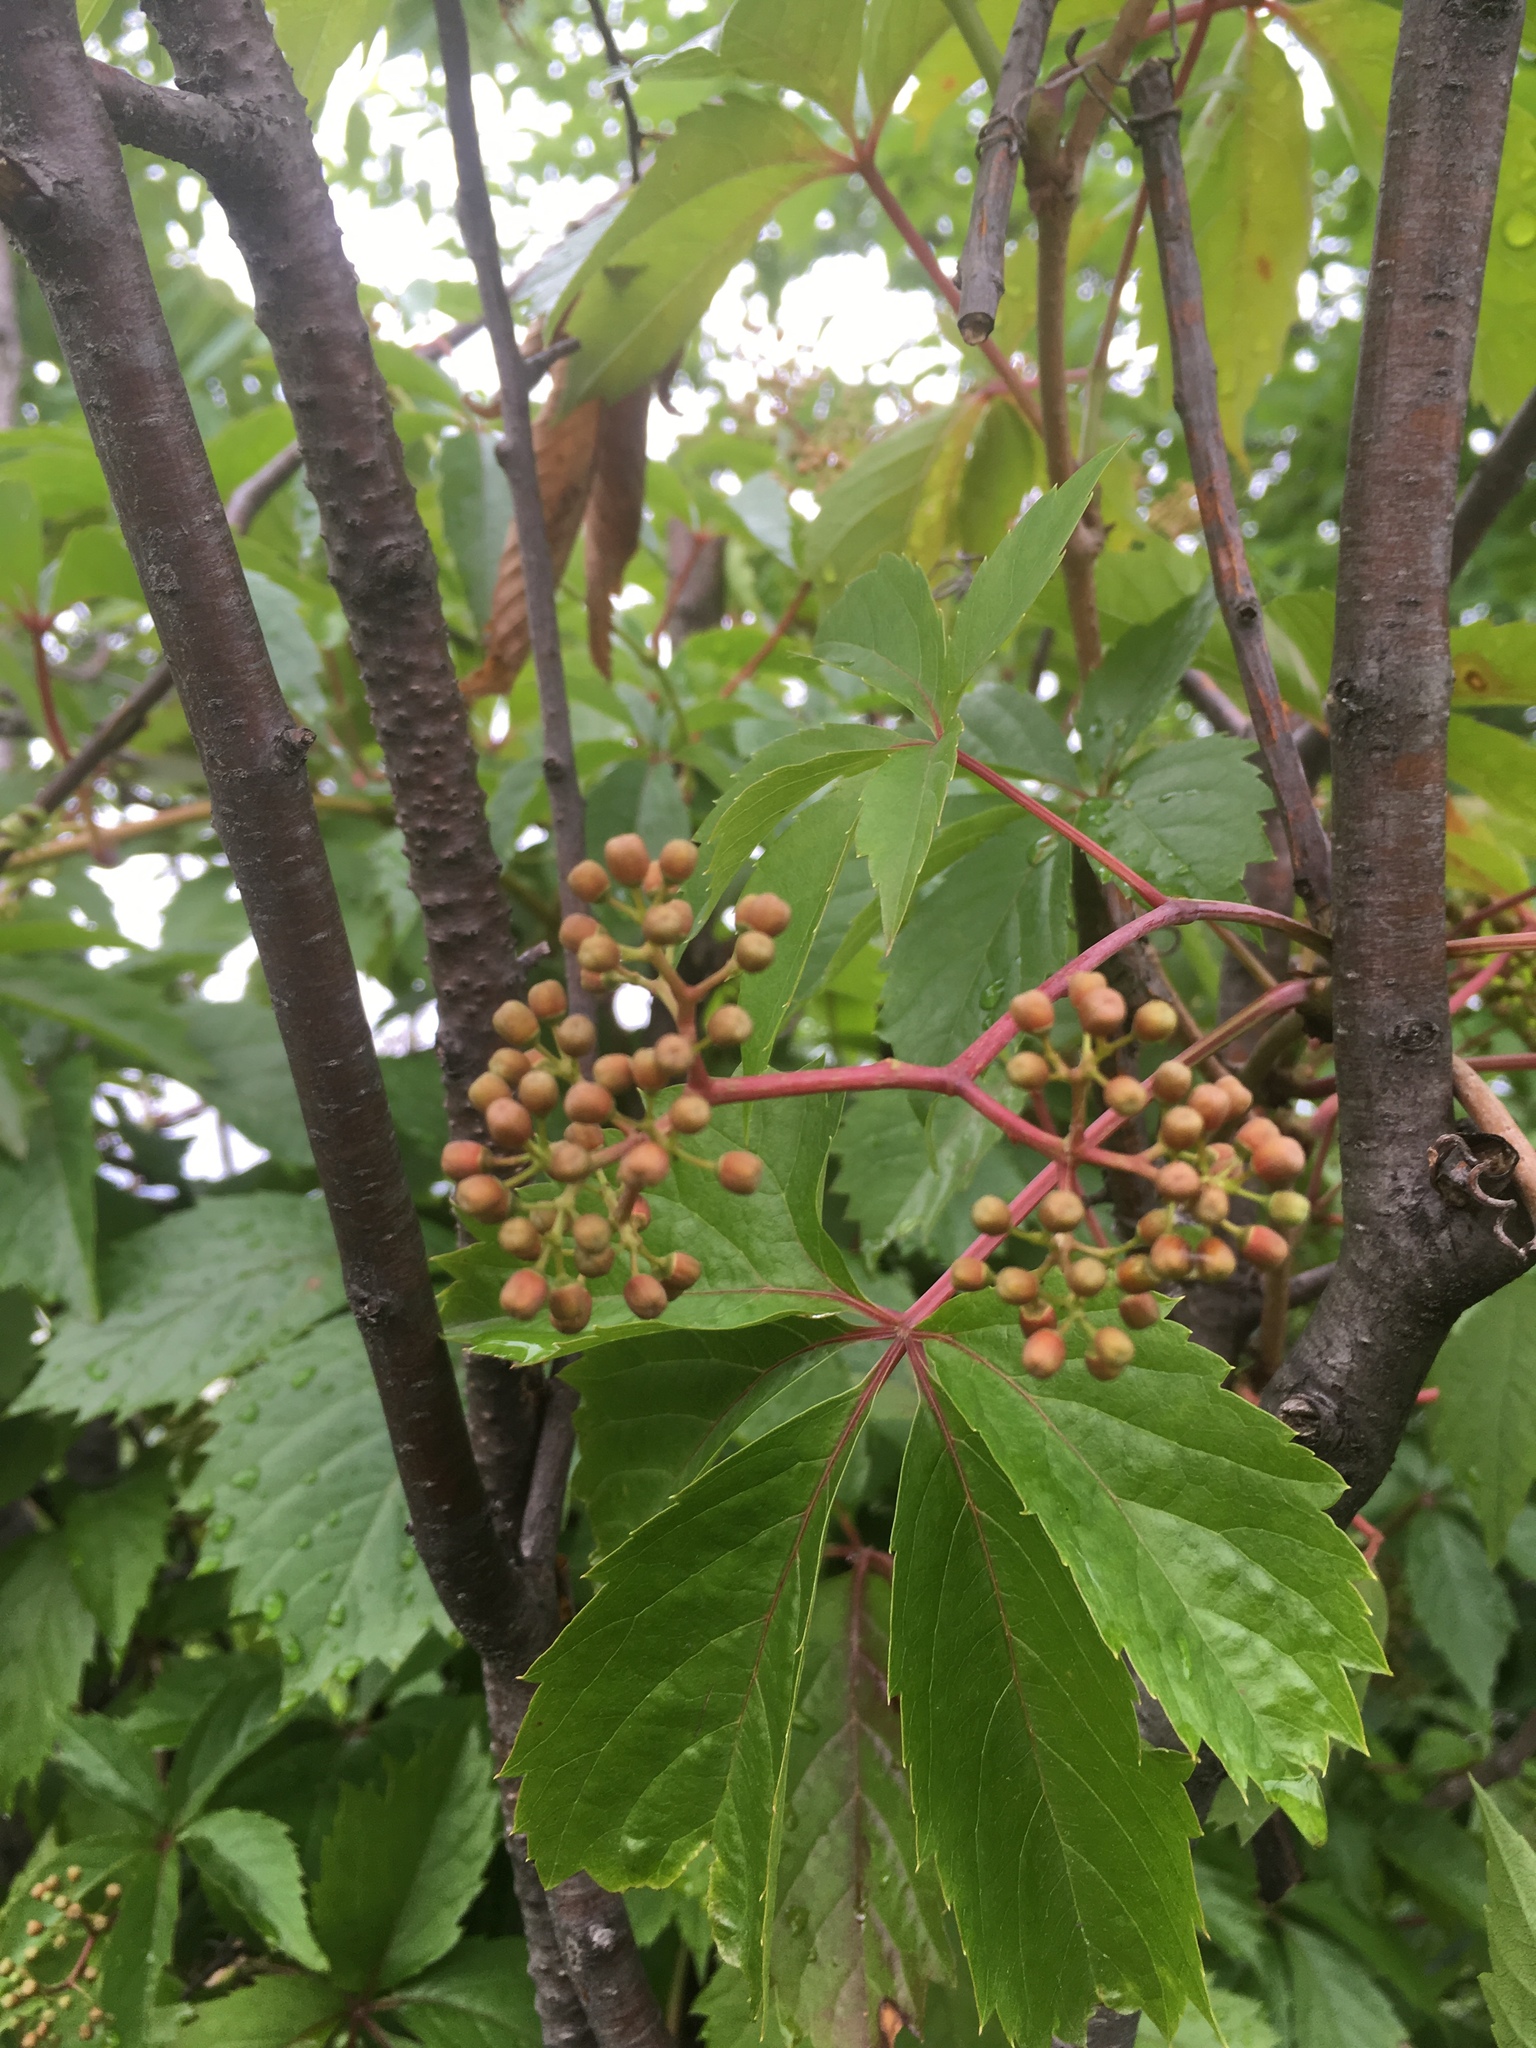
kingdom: Plantae
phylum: Tracheophyta
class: Magnoliopsida
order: Vitales
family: Vitaceae
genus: Parthenocissus
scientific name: Parthenocissus quinquefolia
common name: Virginia-creeper
